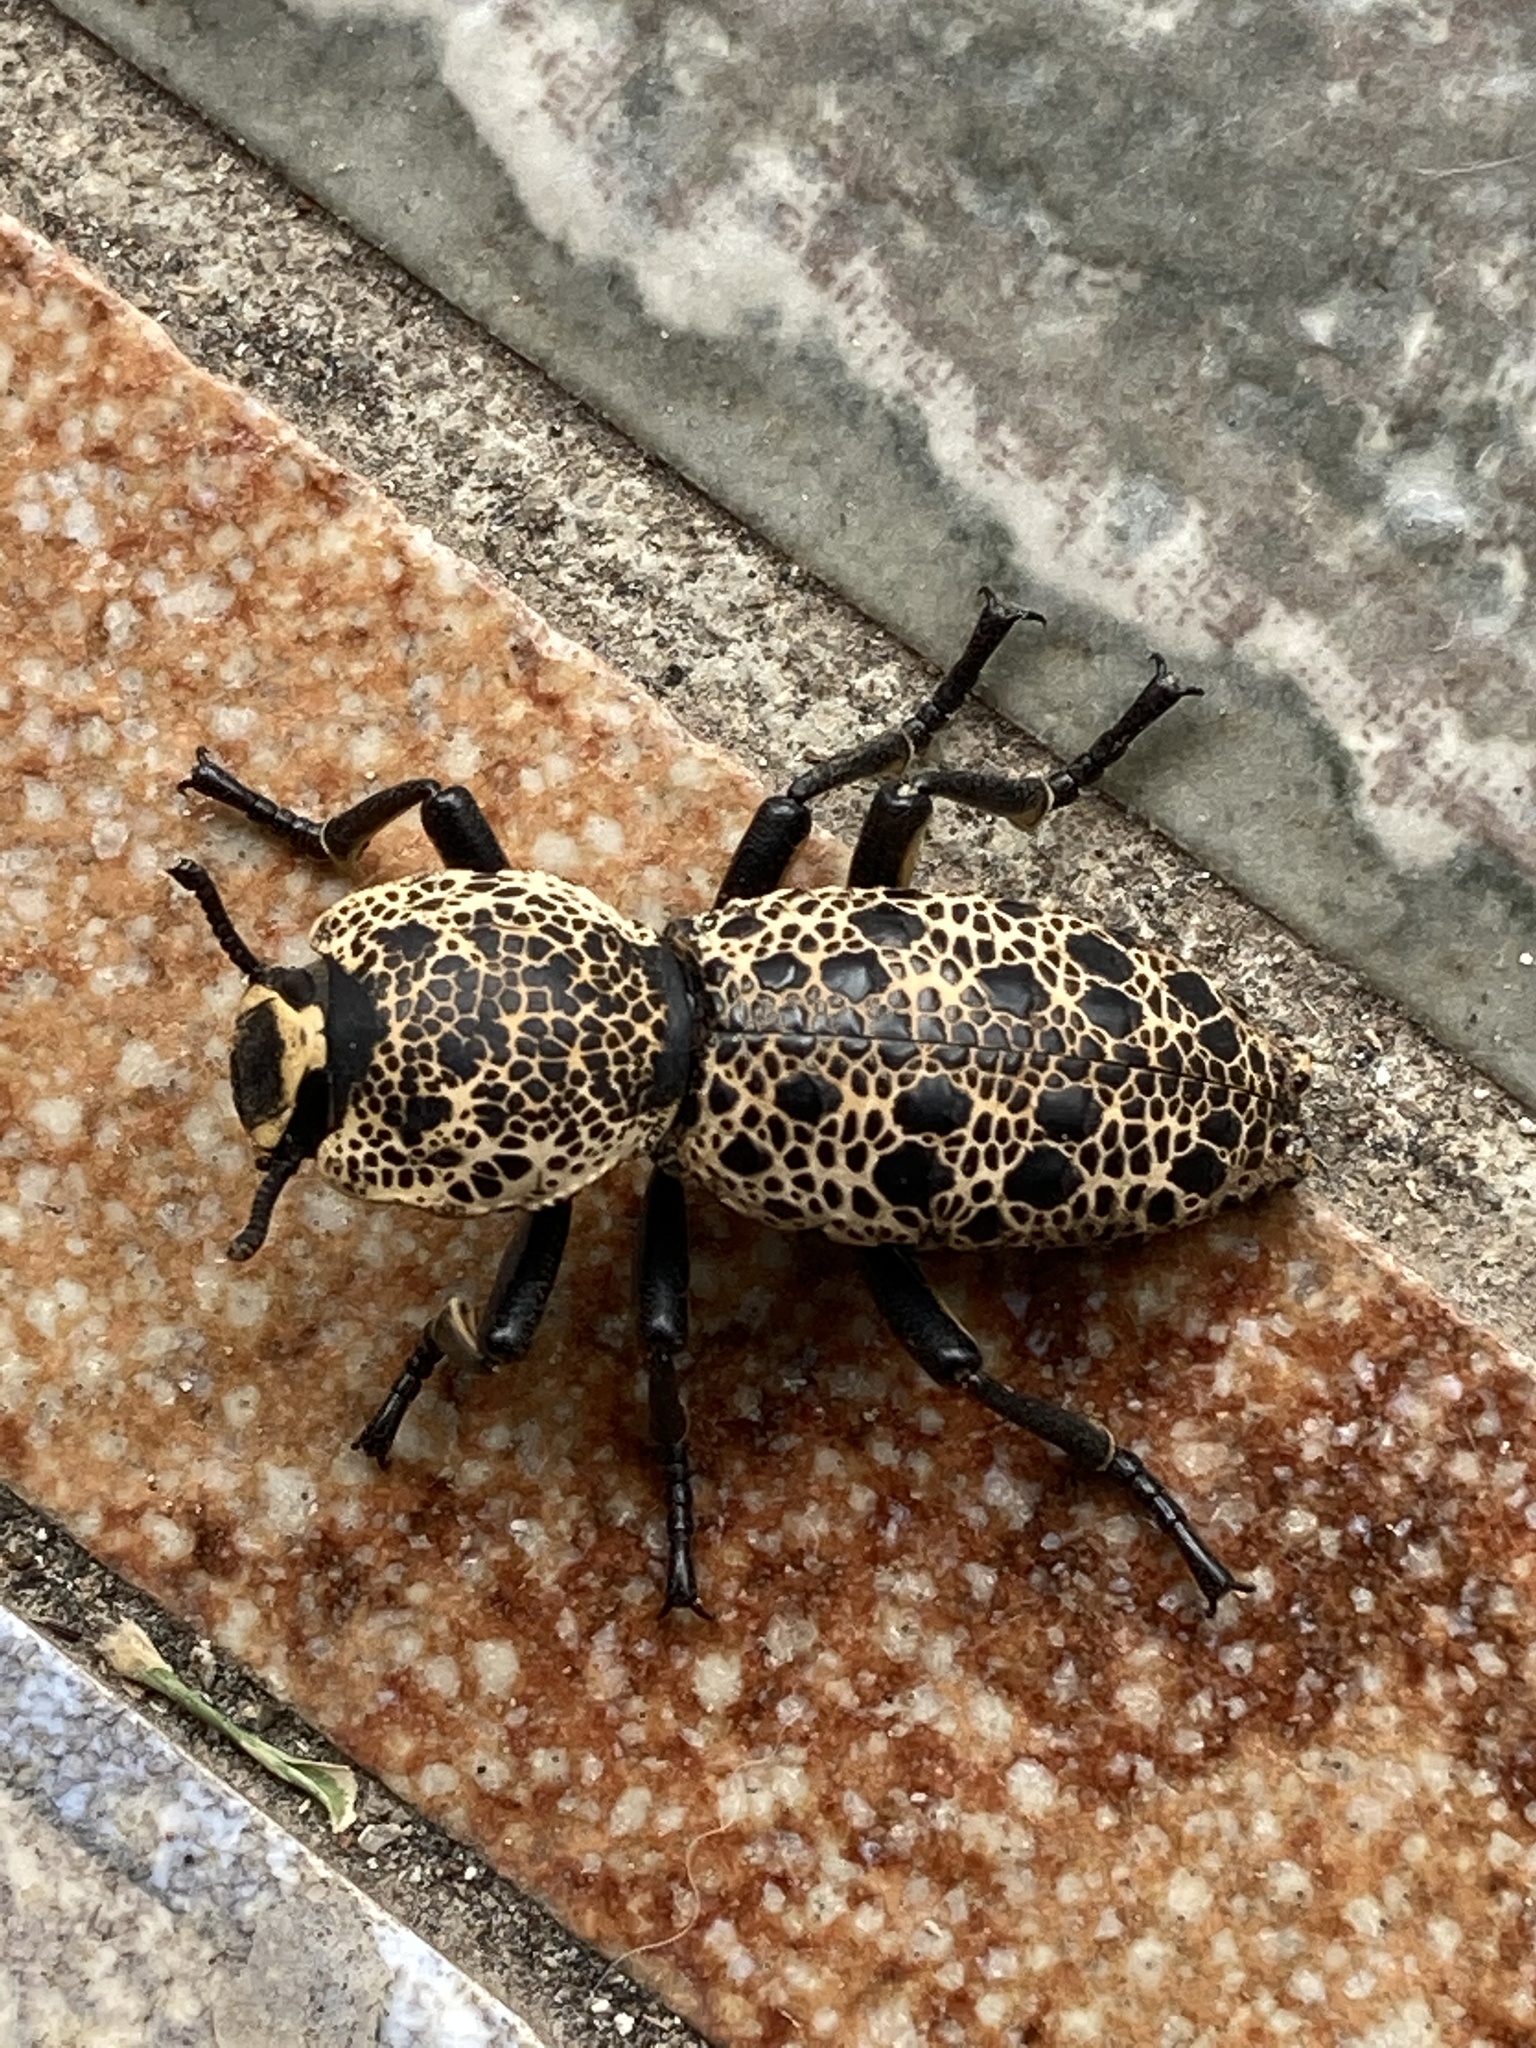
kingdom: Animalia
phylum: Arthropoda
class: Insecta
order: Coleoptera
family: Zopheridae
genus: Zopherus
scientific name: Zopherus
